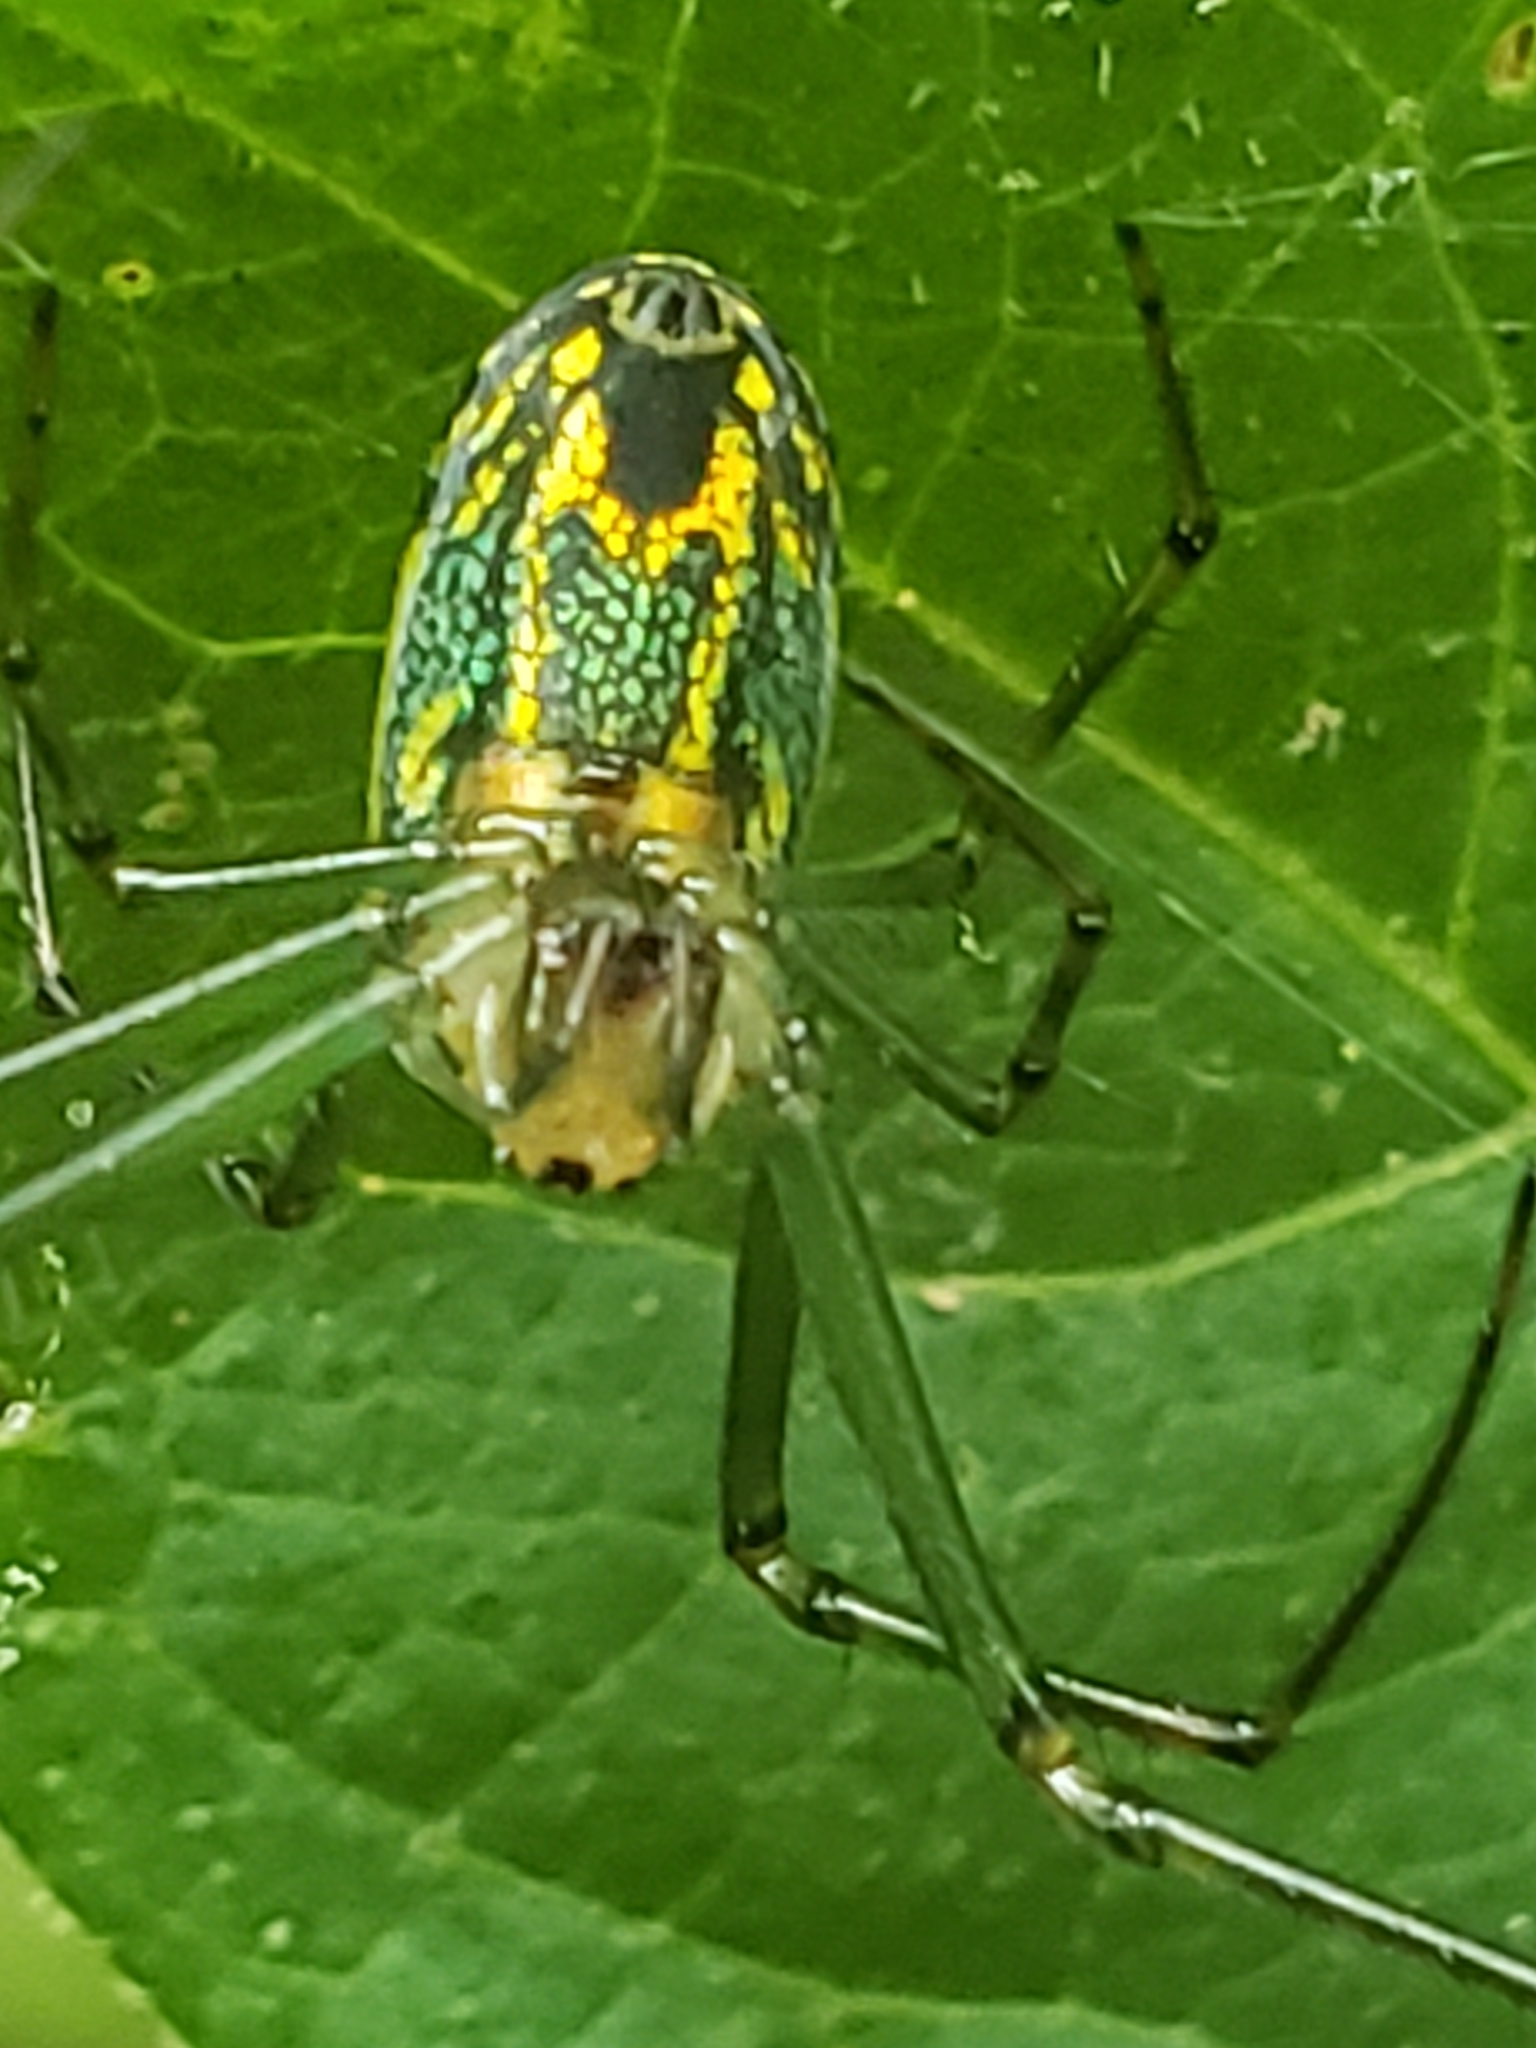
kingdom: Animalia
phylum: Arthropoda
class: Arachnida
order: Araneae
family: Tetragnathidae
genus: Leucauge
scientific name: Leucauge venusta
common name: Longjawed orb weavers
